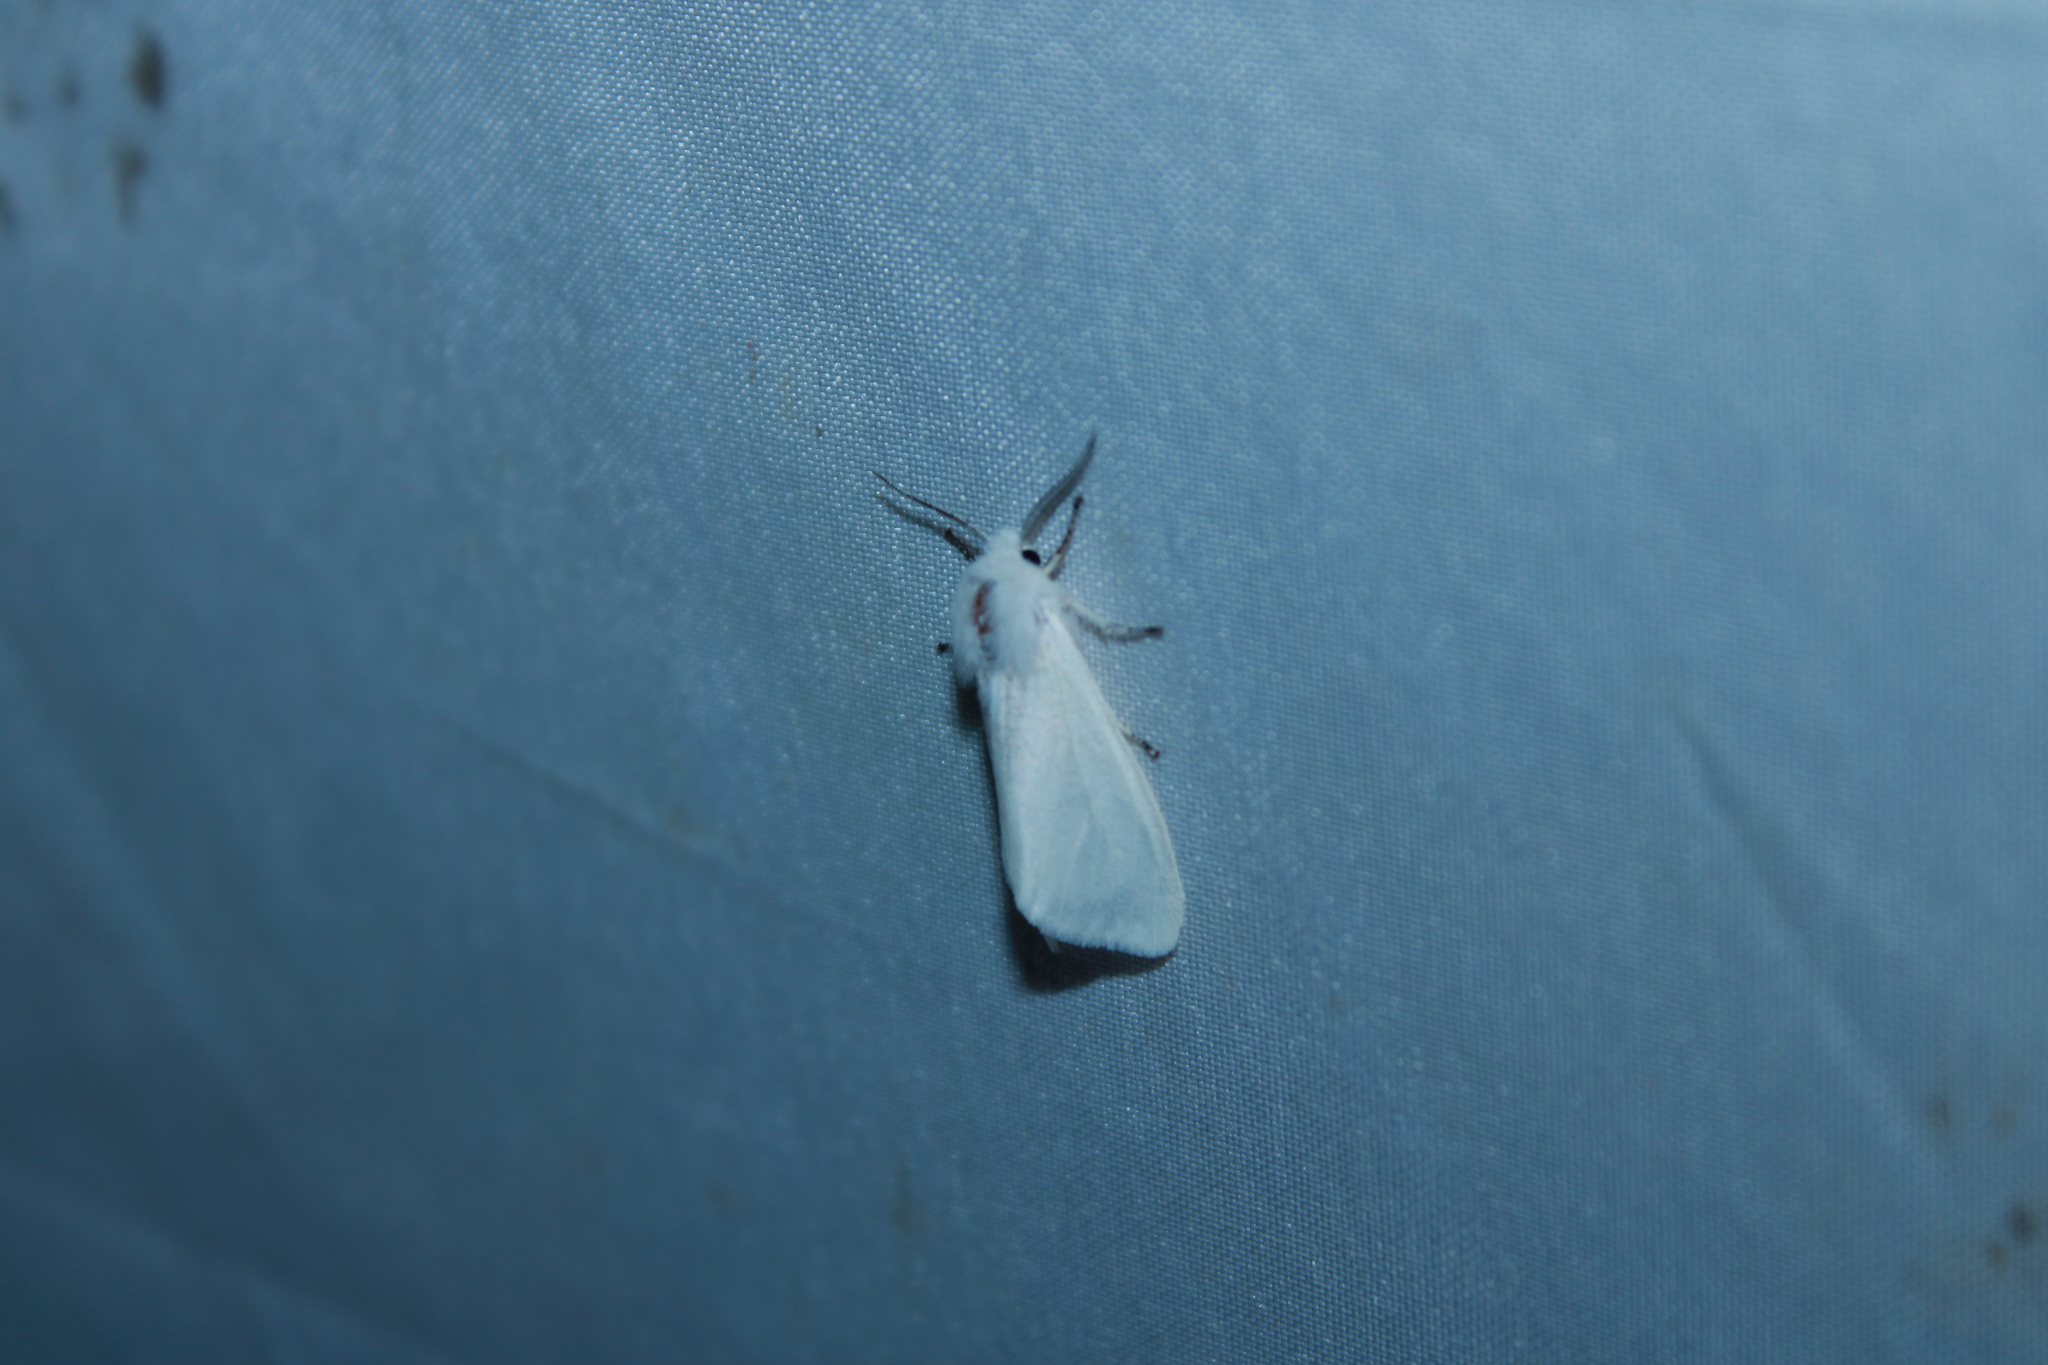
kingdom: Animalia
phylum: Arthropoda
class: Insecta
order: Lepidoptera
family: Erebidae
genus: Hyphantria
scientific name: Hyphantria cunea
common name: American white moth
